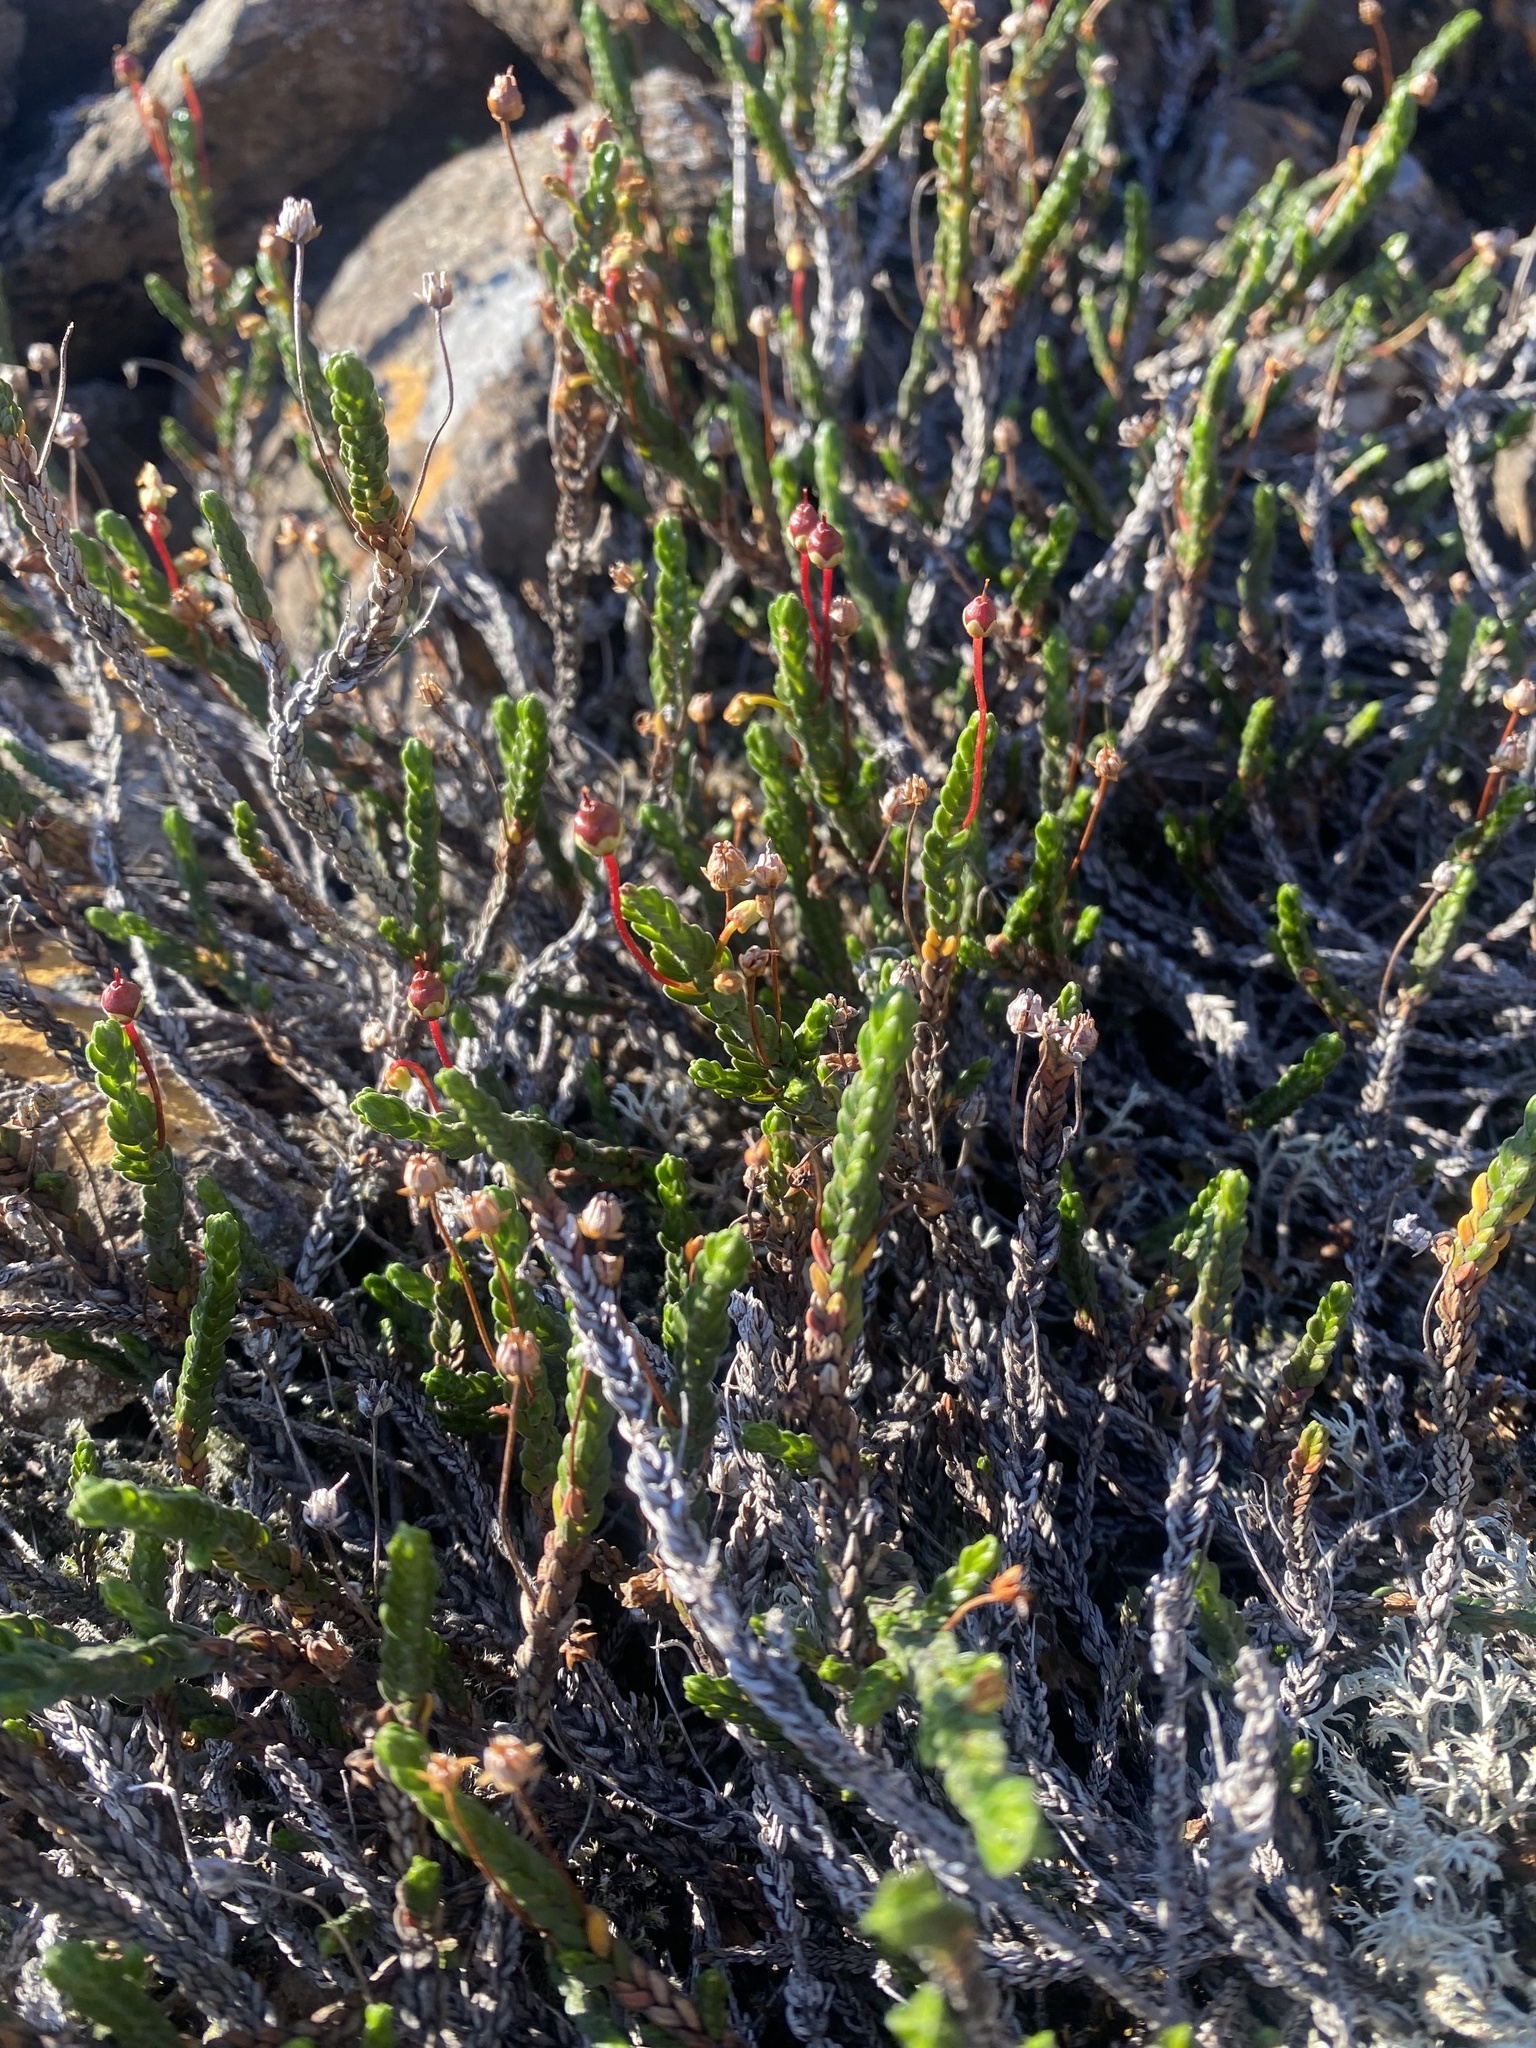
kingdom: Plantae
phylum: Tracheophyta
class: Magnoliopsida
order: Ericales
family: Ericaceae
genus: Cassiope
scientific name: Cassiope tetragona
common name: Arctic bell heather
